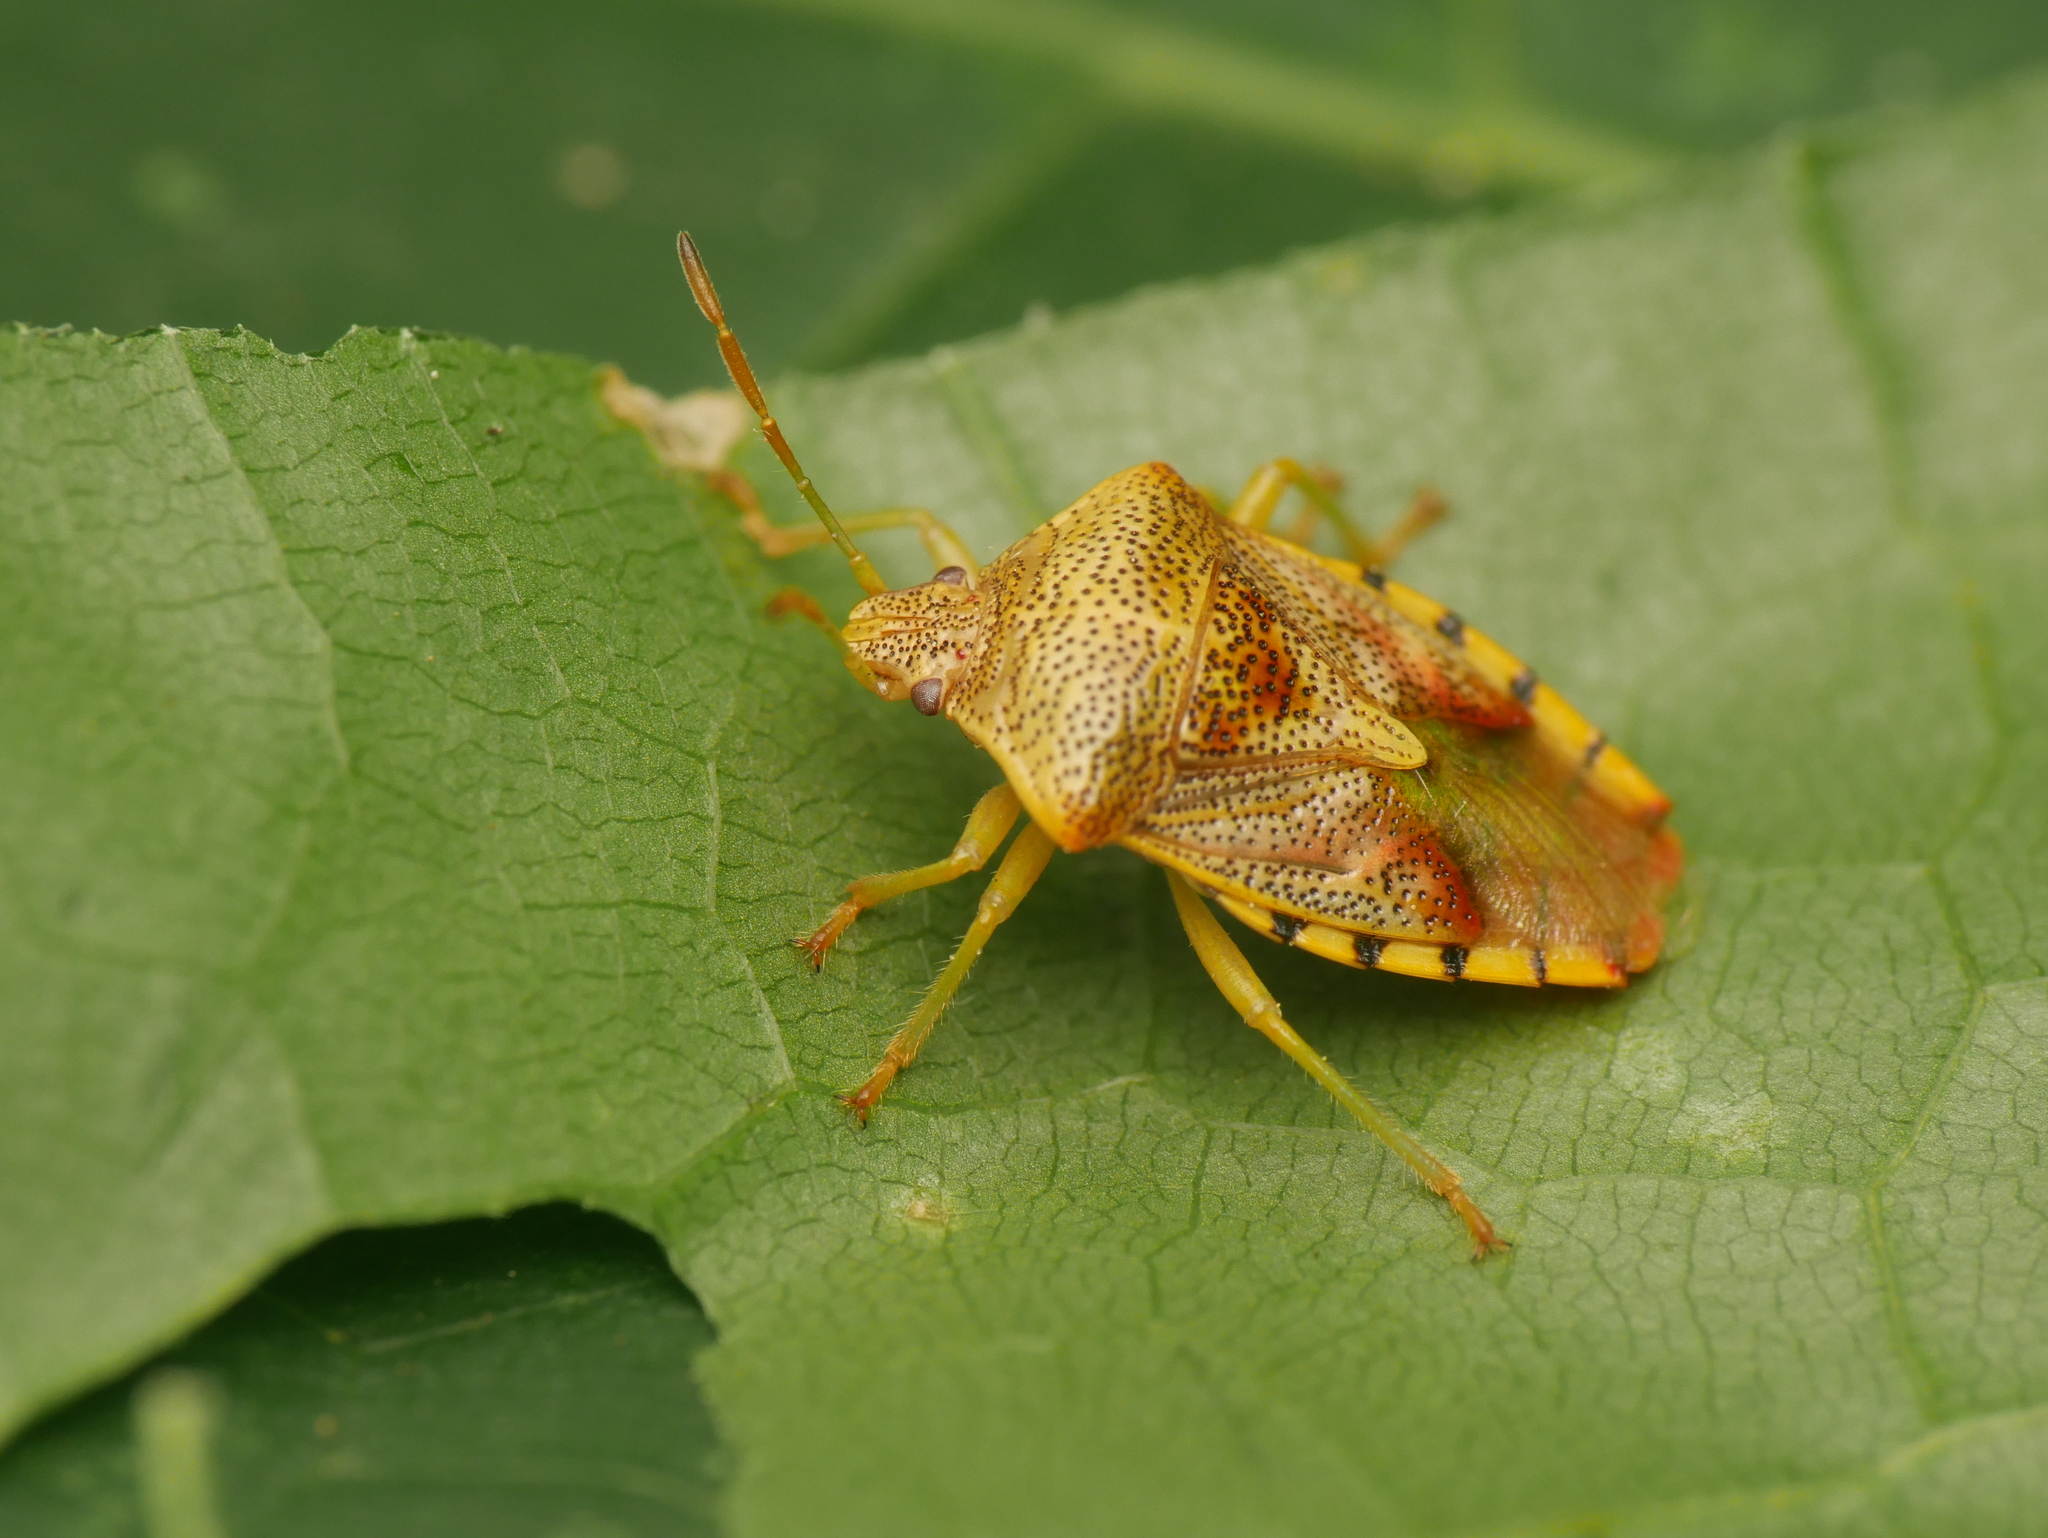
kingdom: Animalia
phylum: Arthropoda
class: Insecta
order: Hemiptera
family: Acanthosomatidae
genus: Elasmucha
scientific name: Elasmucha grisea
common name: Parent bug
